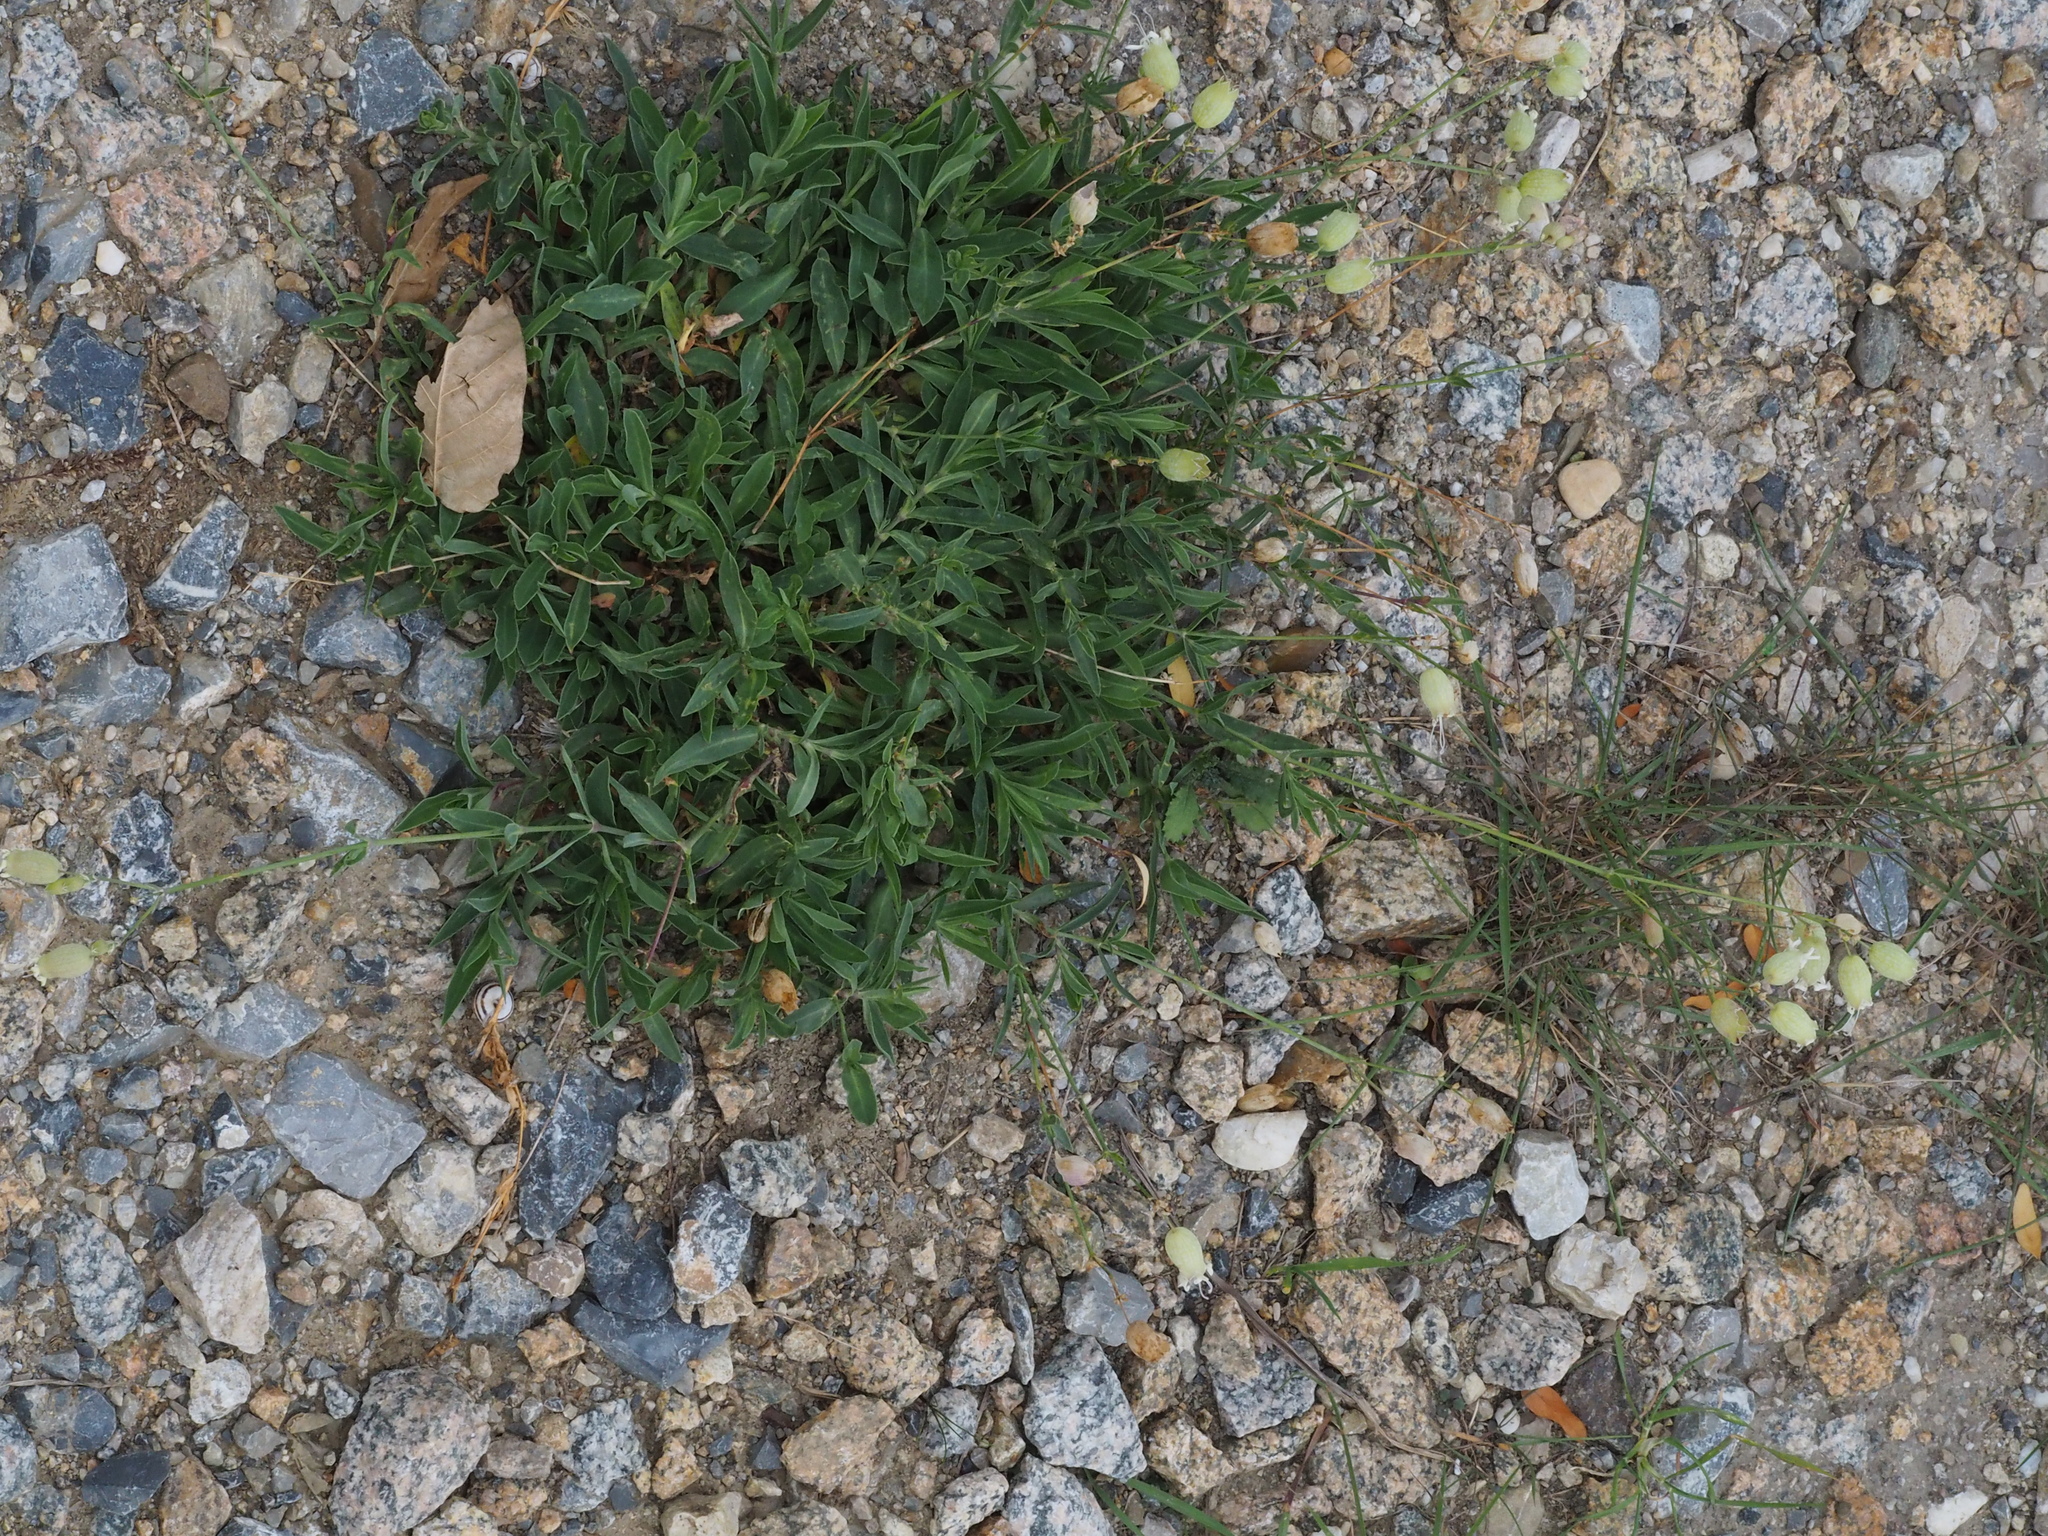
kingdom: Plantae
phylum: Tracheophyta
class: Magnoliopsida
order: Caryophyllales
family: Caryophyllaceae
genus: Silene
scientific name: Silene vulgaris
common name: Bladder campion
